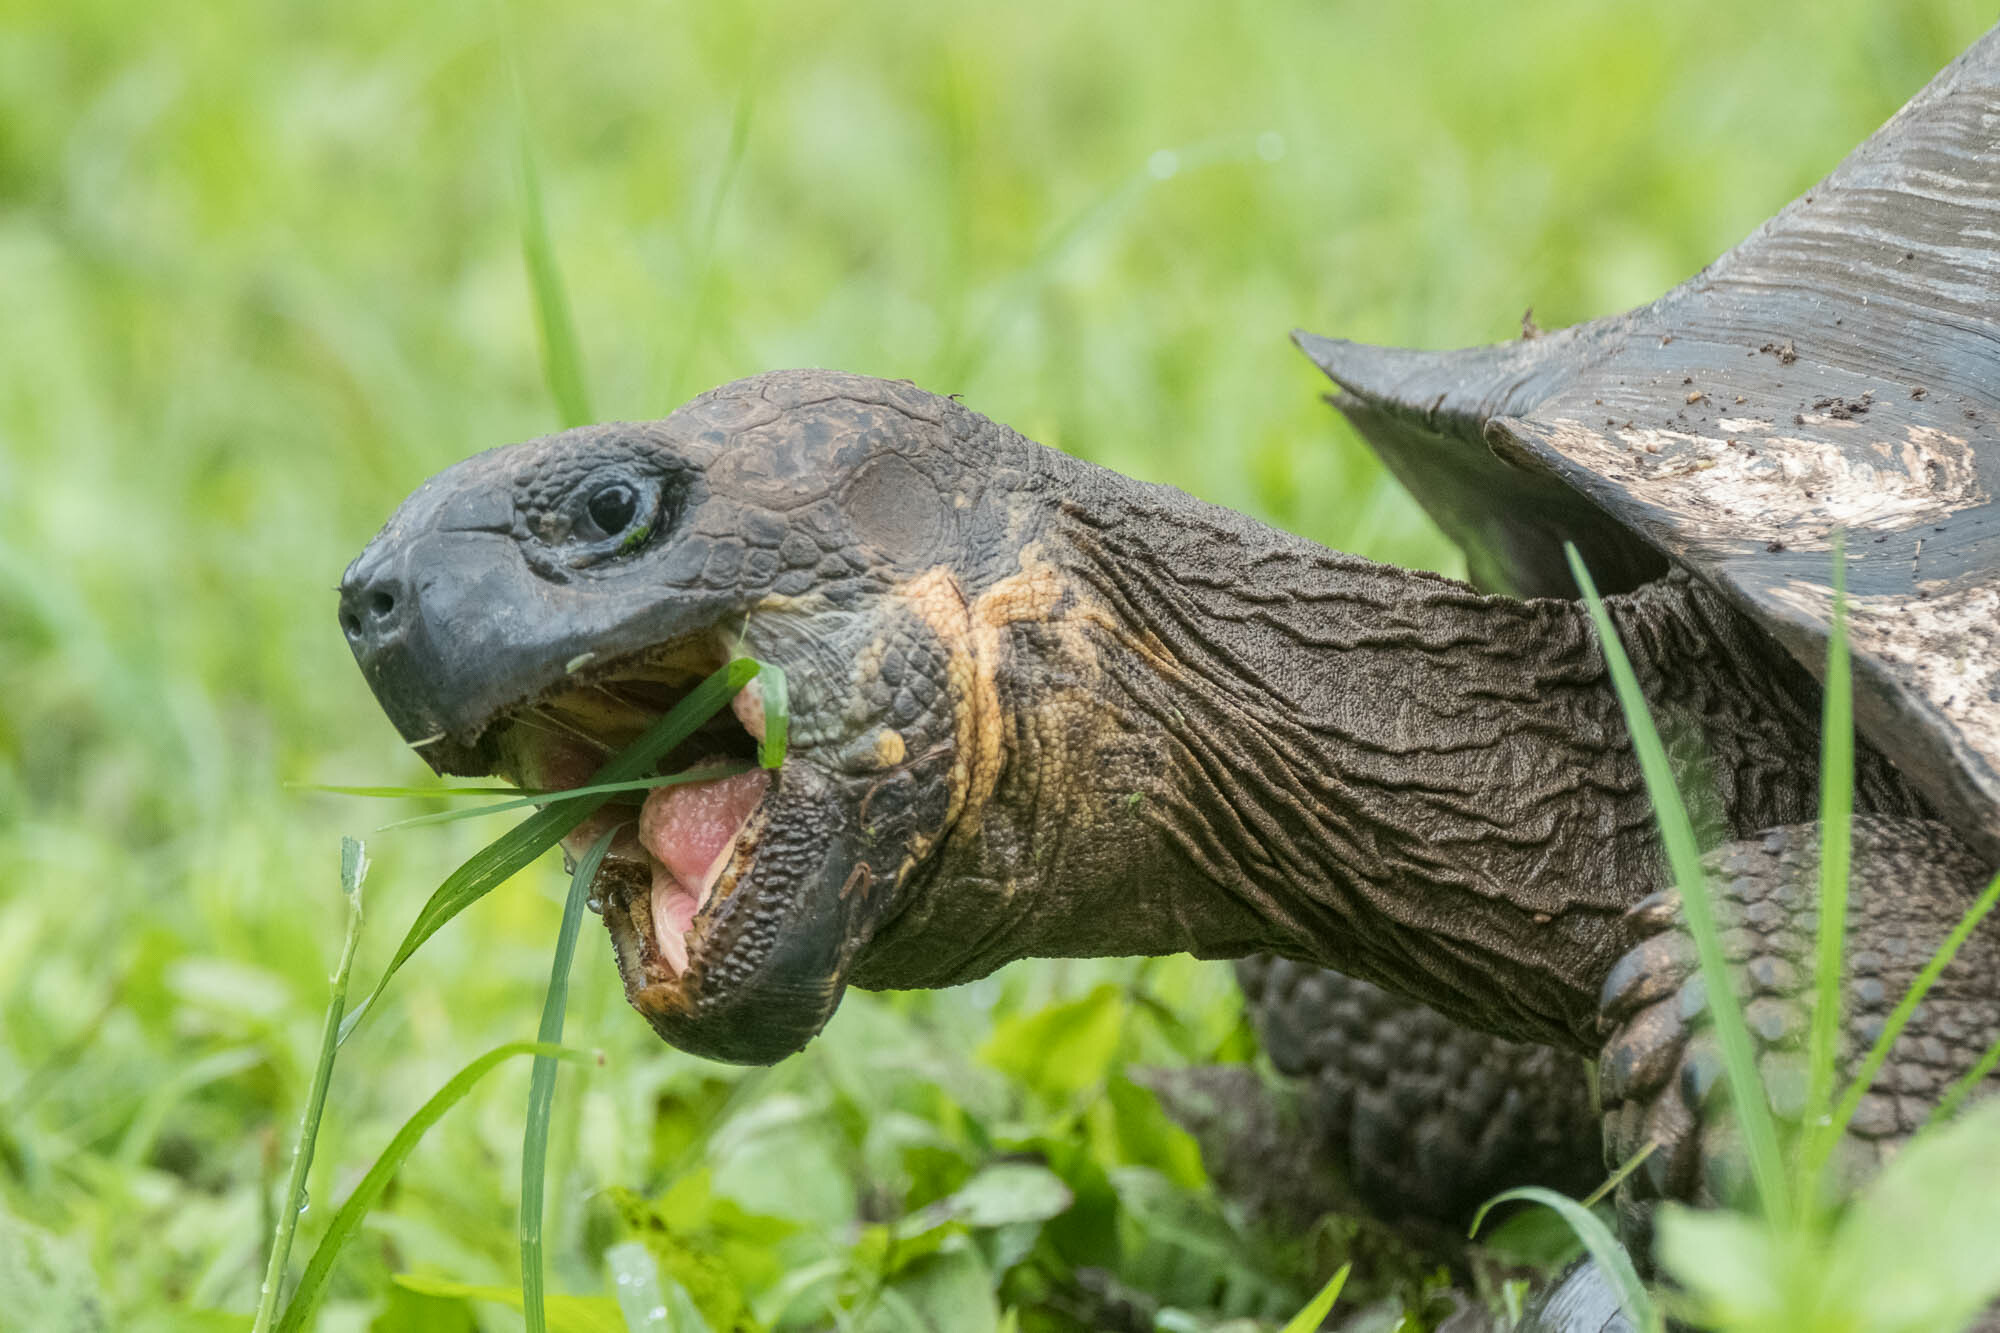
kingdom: Animalia
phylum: Chordata
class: Testudines
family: Testudinidae
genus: Chelonoidis
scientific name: Chelonoidis niger
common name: Charles island giant tortoise
